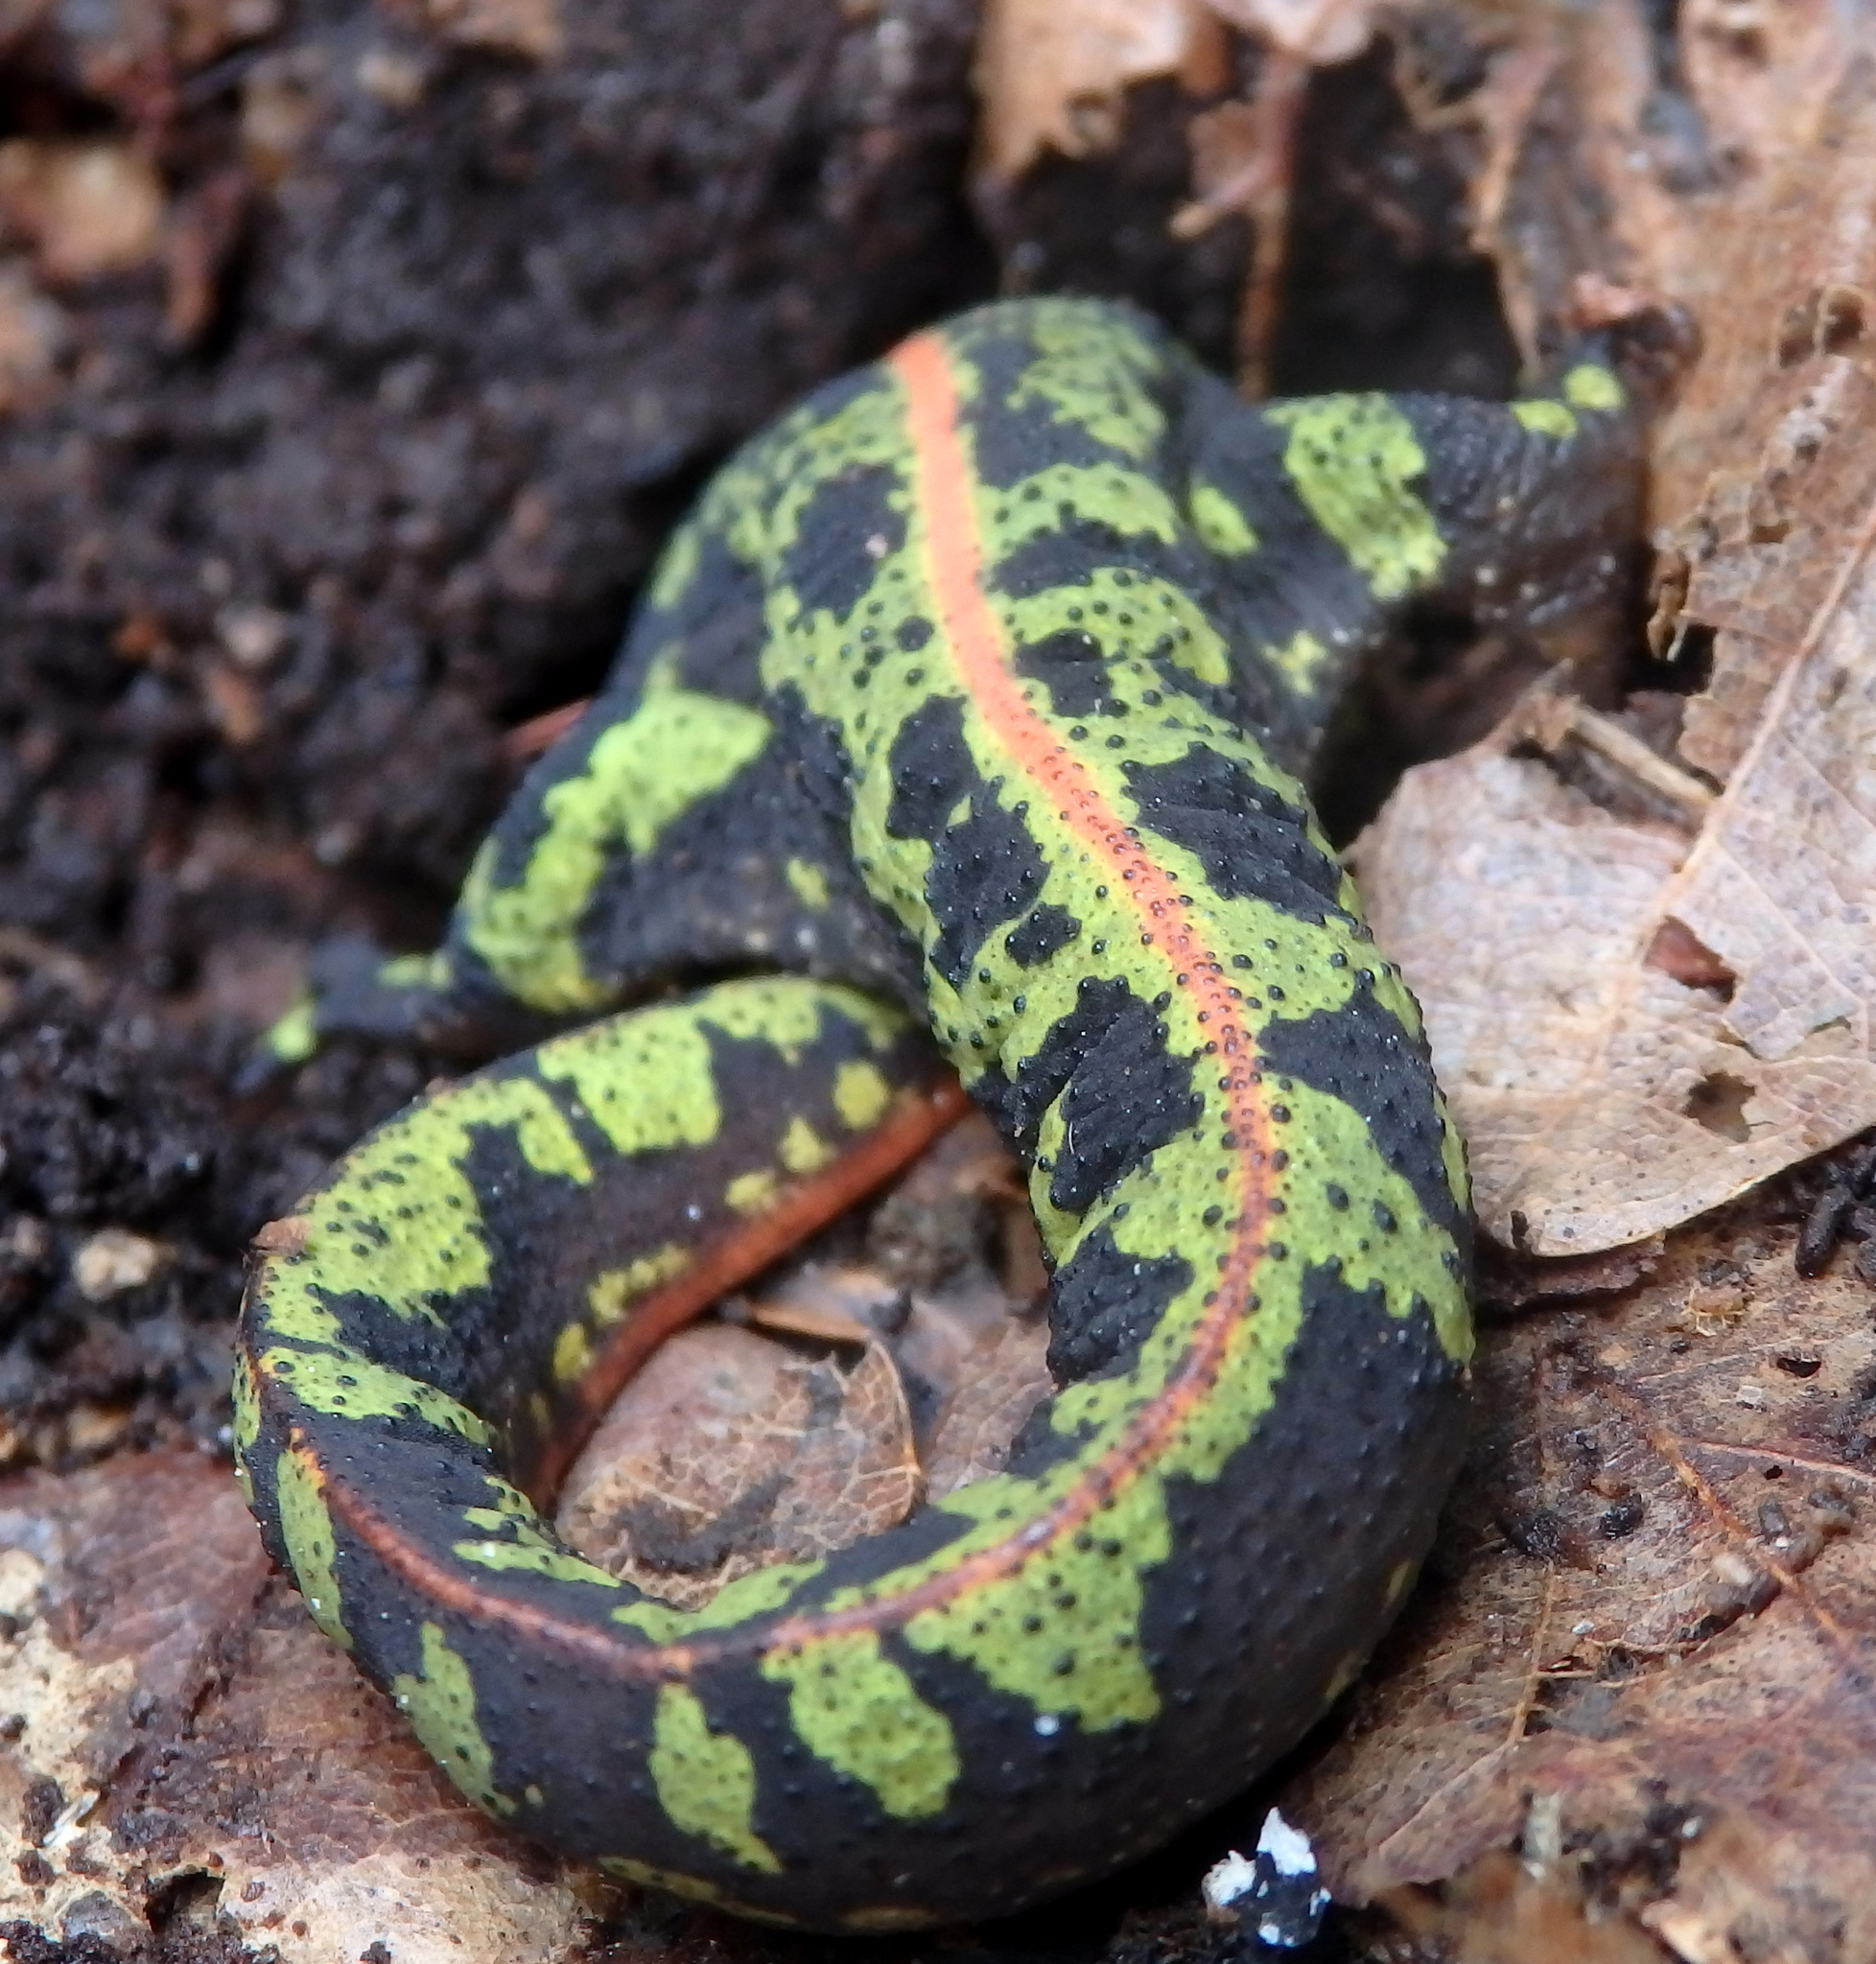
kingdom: Animalia
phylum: Chordata
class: Amphibia
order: Caudata
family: Salamandridae
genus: Triturus
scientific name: Triturus marmoratus
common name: Marbled newt
